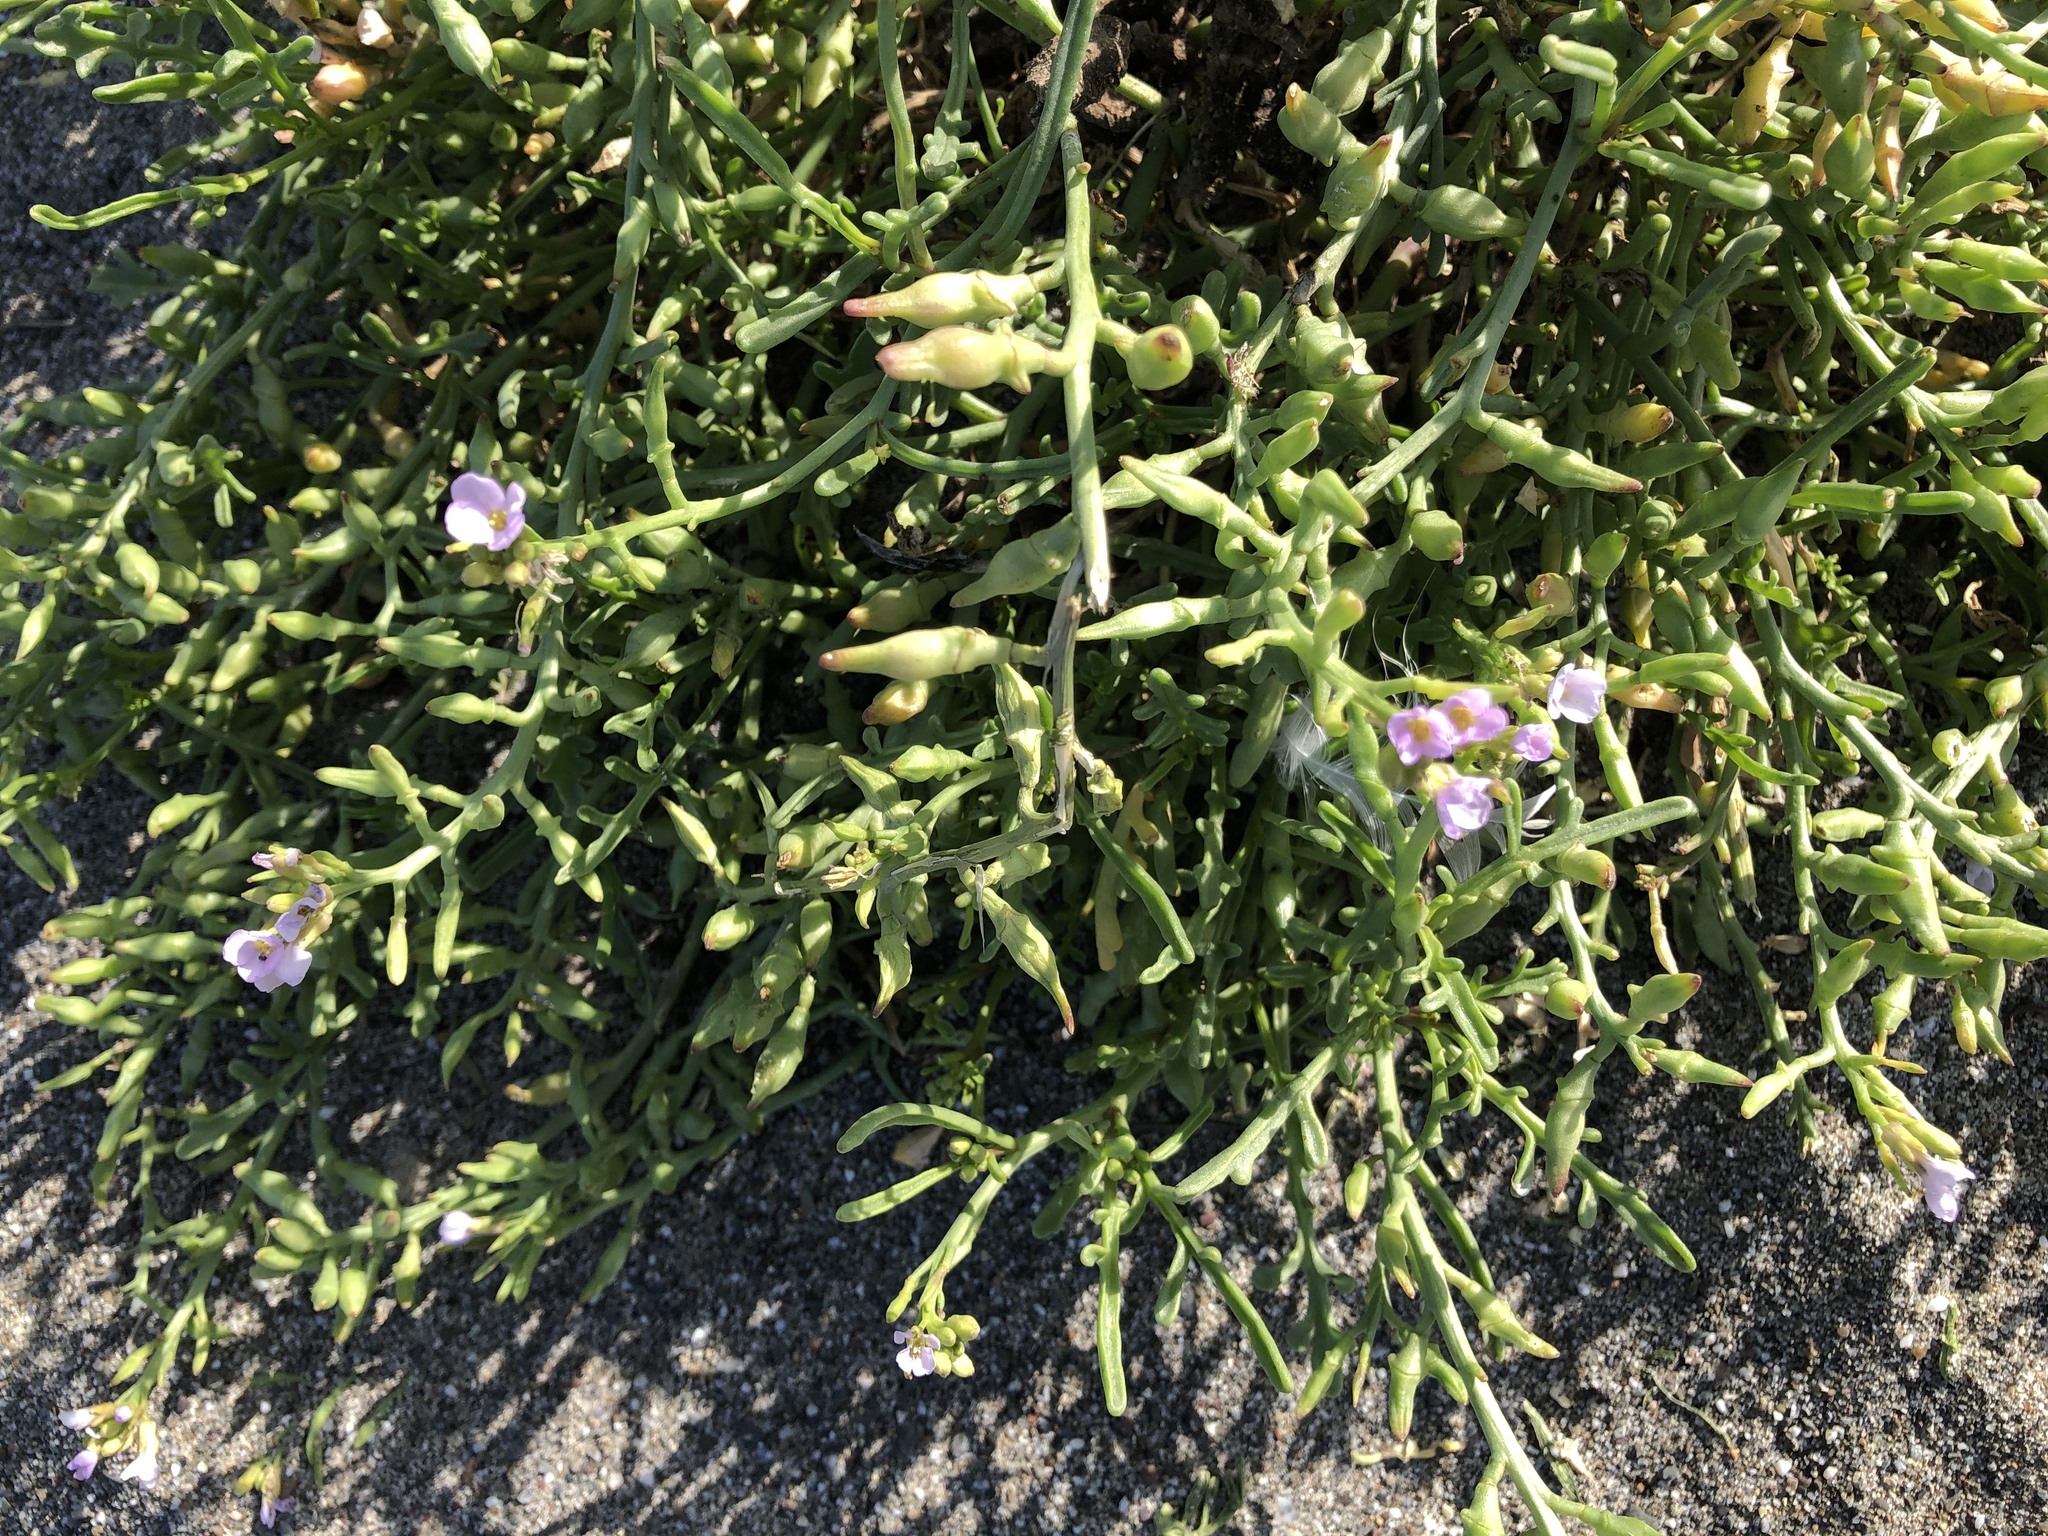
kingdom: Plantae
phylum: Tracheophyta
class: Magnoliopsida
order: Brassicales
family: Brassicaceae
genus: Cakile
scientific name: Cakile maritima
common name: Sea rocket
